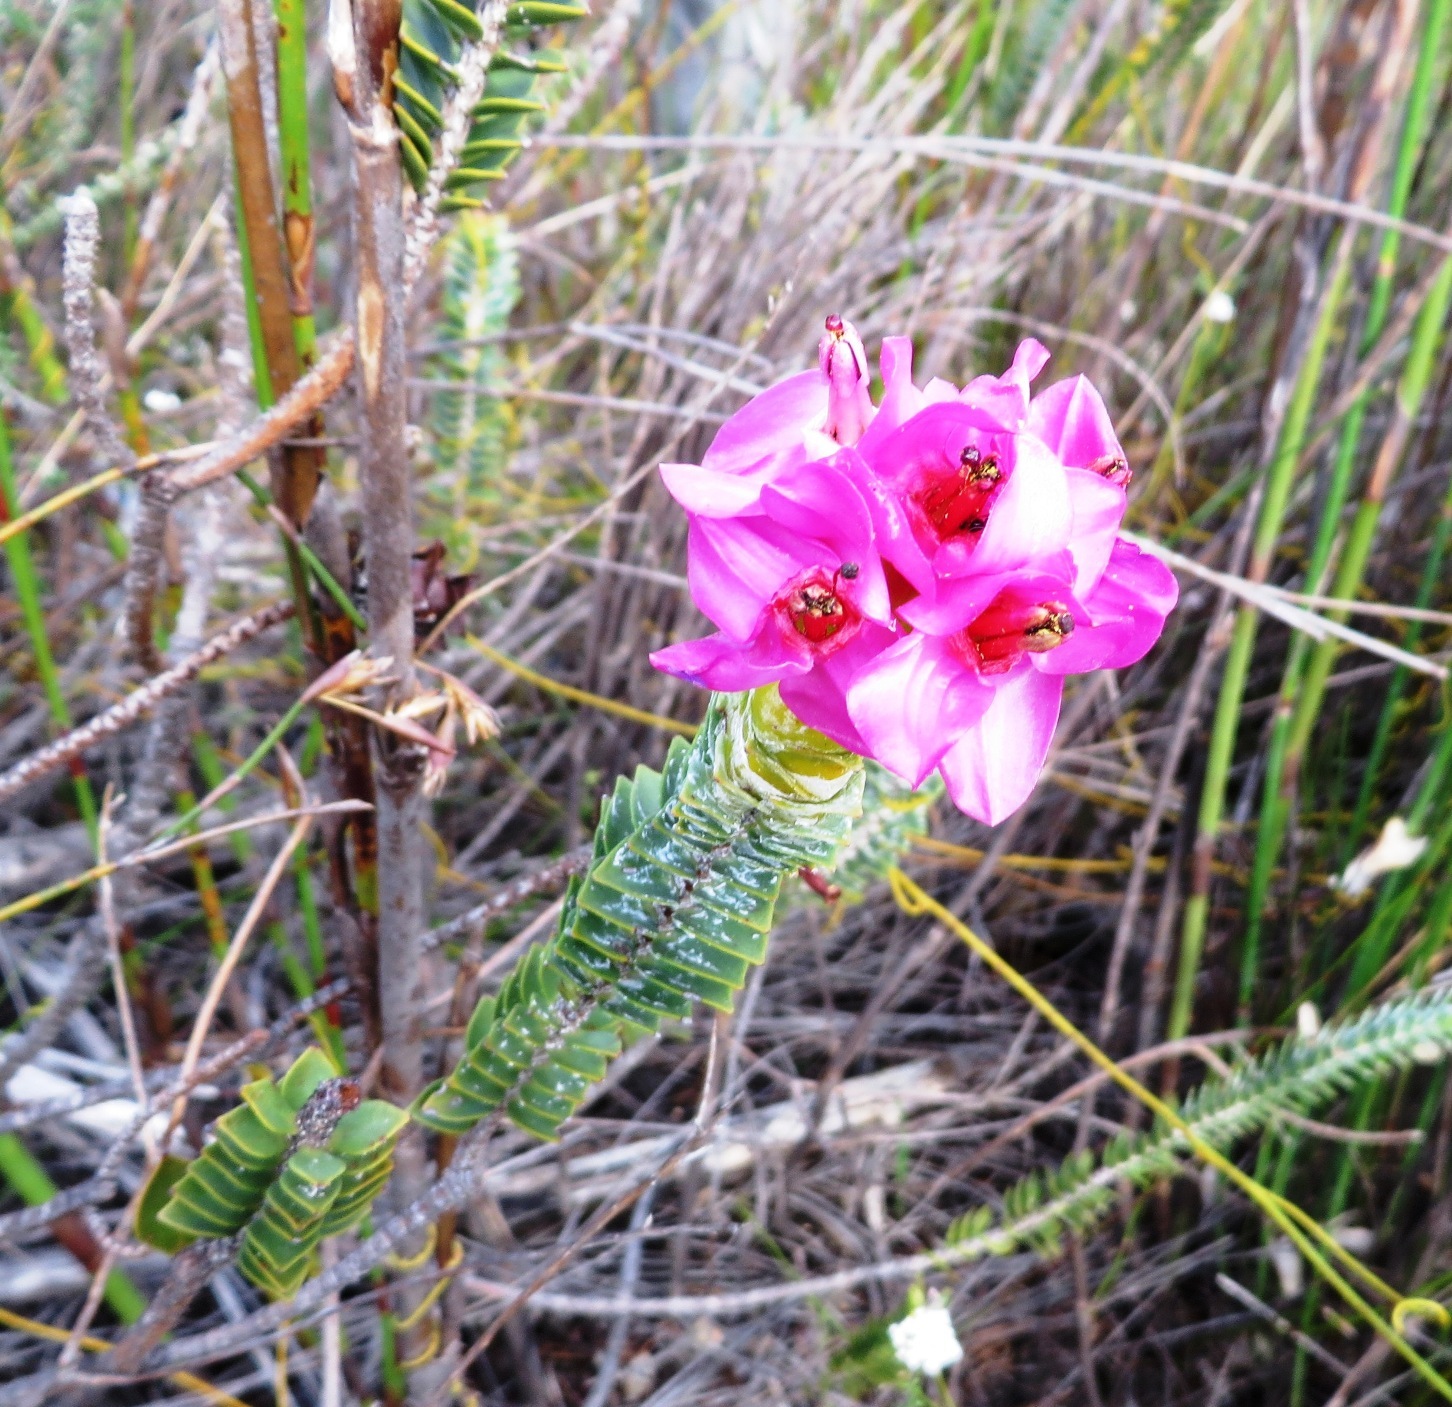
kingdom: Plantae
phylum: Tracheophyta
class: Magnoliopsida
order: Myrtales
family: Penaeaceae
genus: Saltera
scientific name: Saltera sarcocolla
